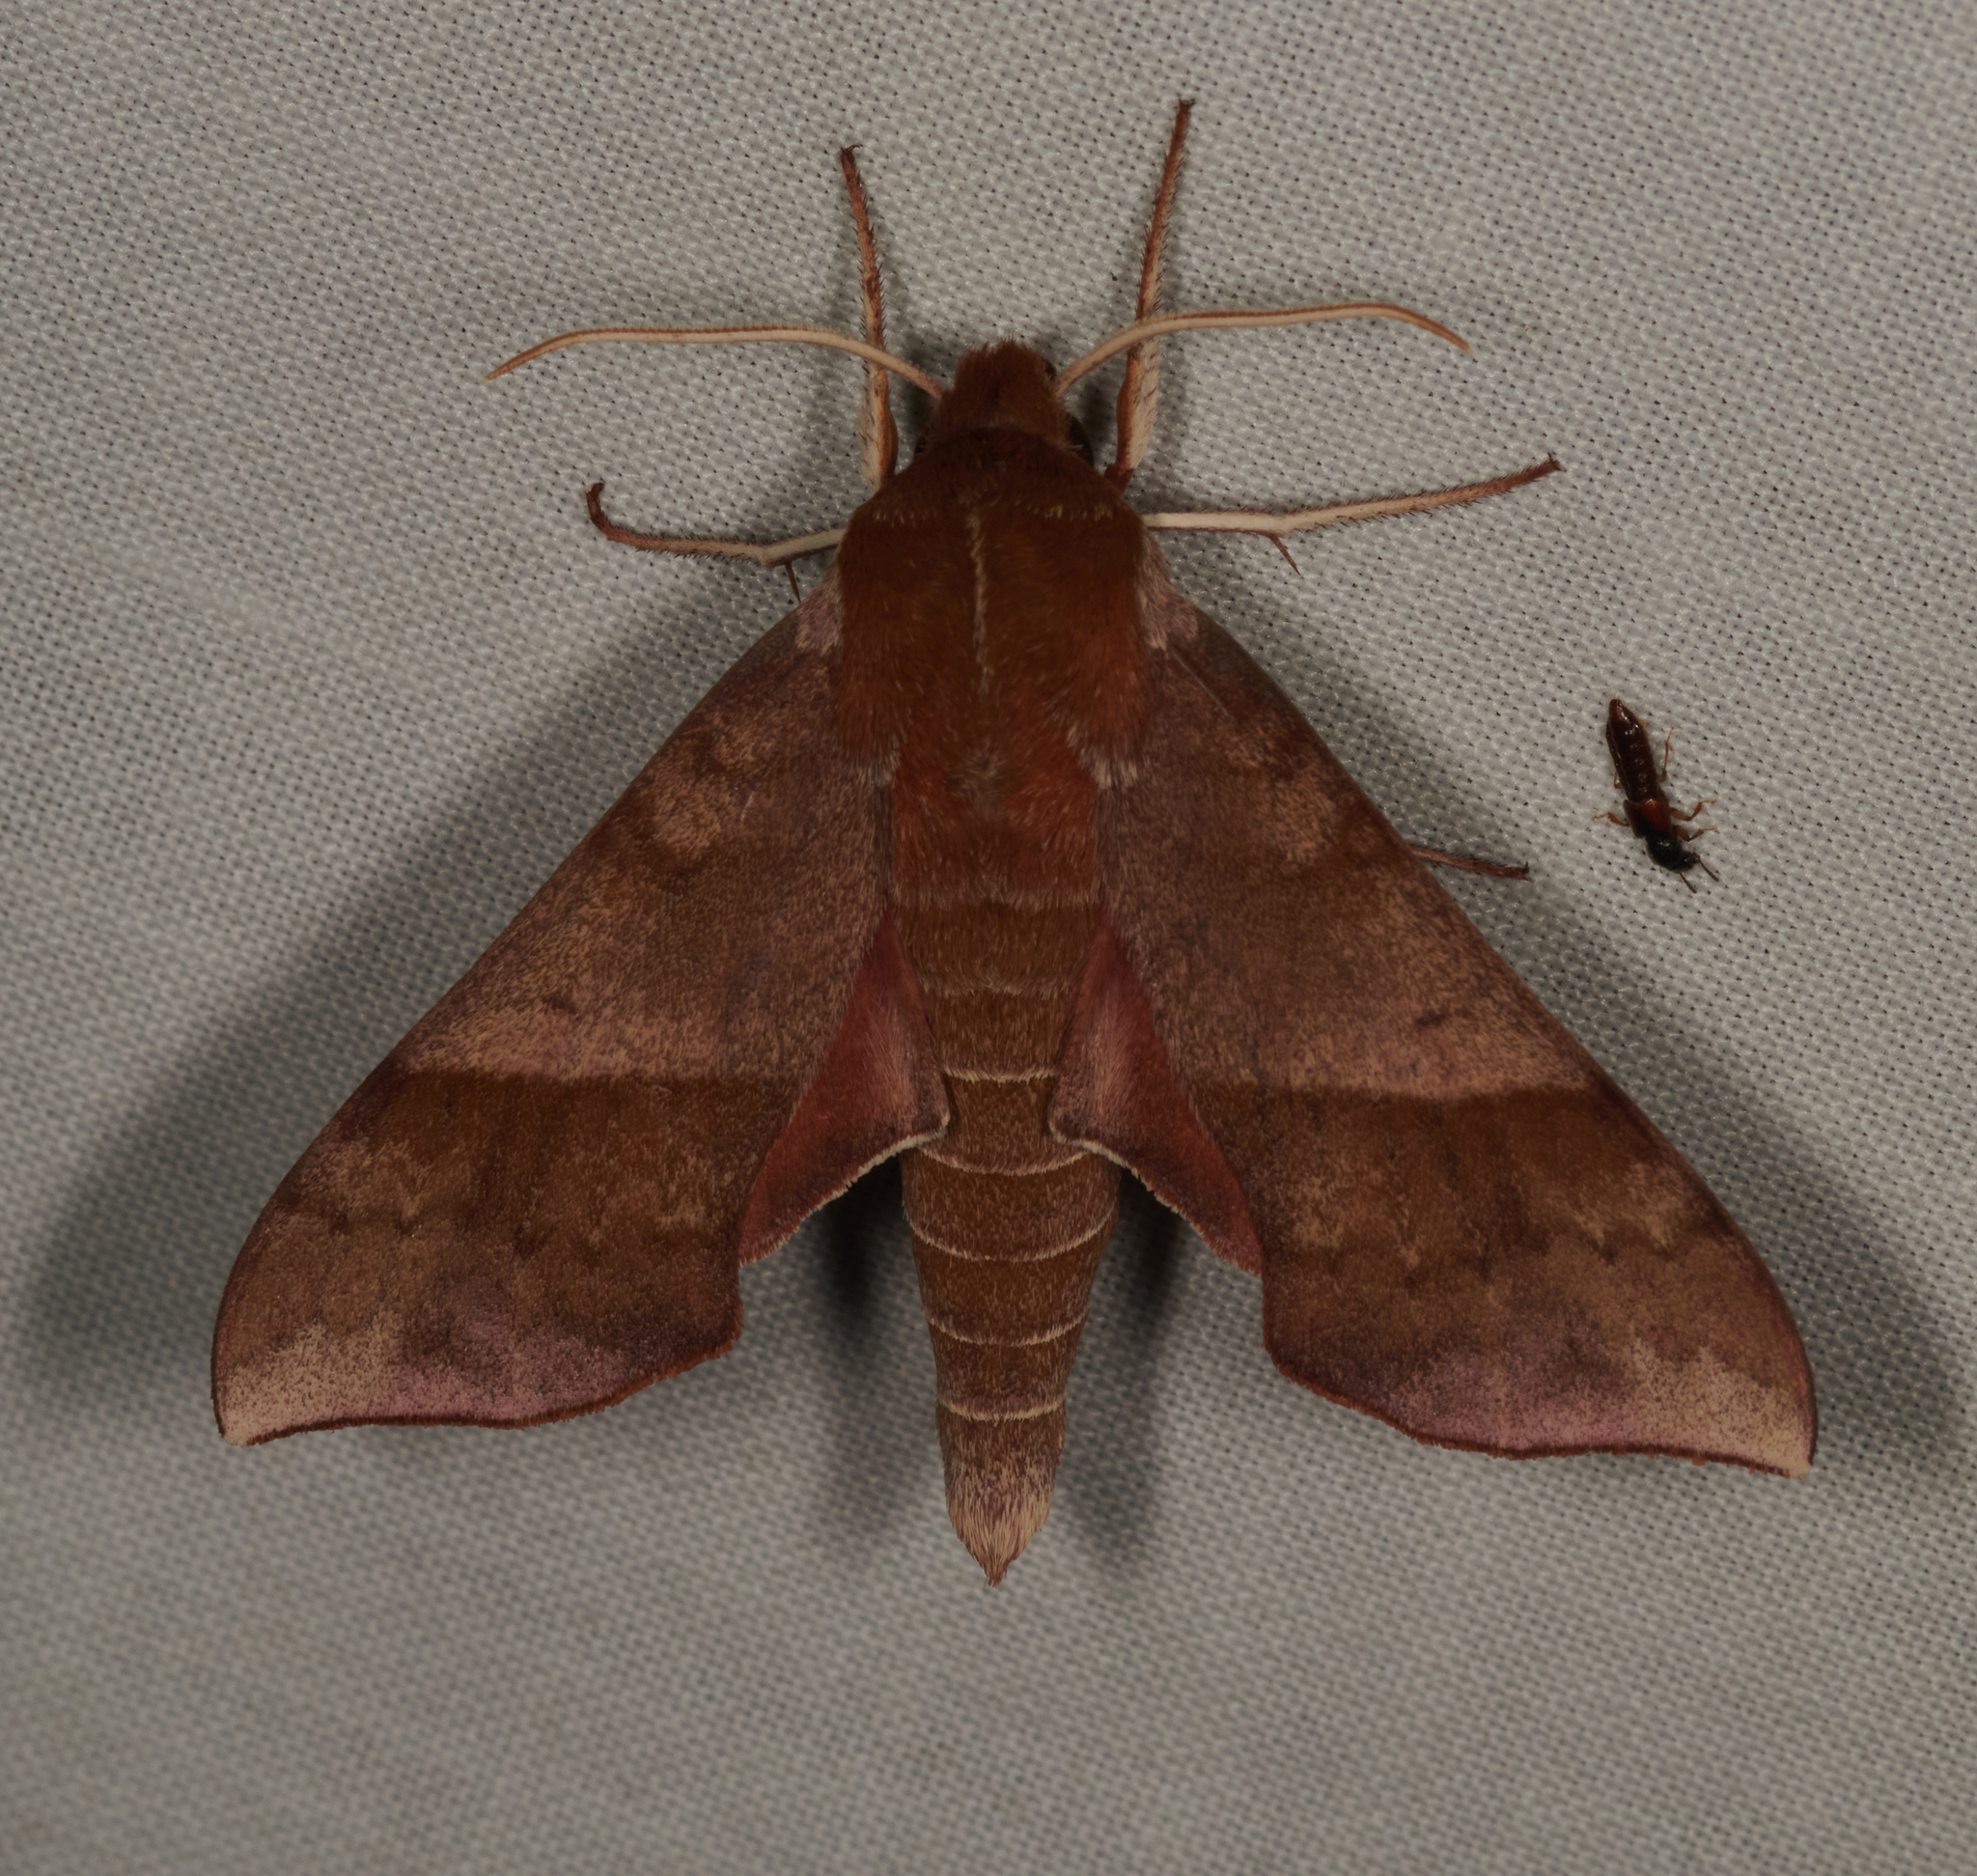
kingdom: Animalia
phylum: Arthropoda
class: Insecta
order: Lepidoptera
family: Sphingidae
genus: Darapsa
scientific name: Darapsa choerilus
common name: Azalea sphinx
